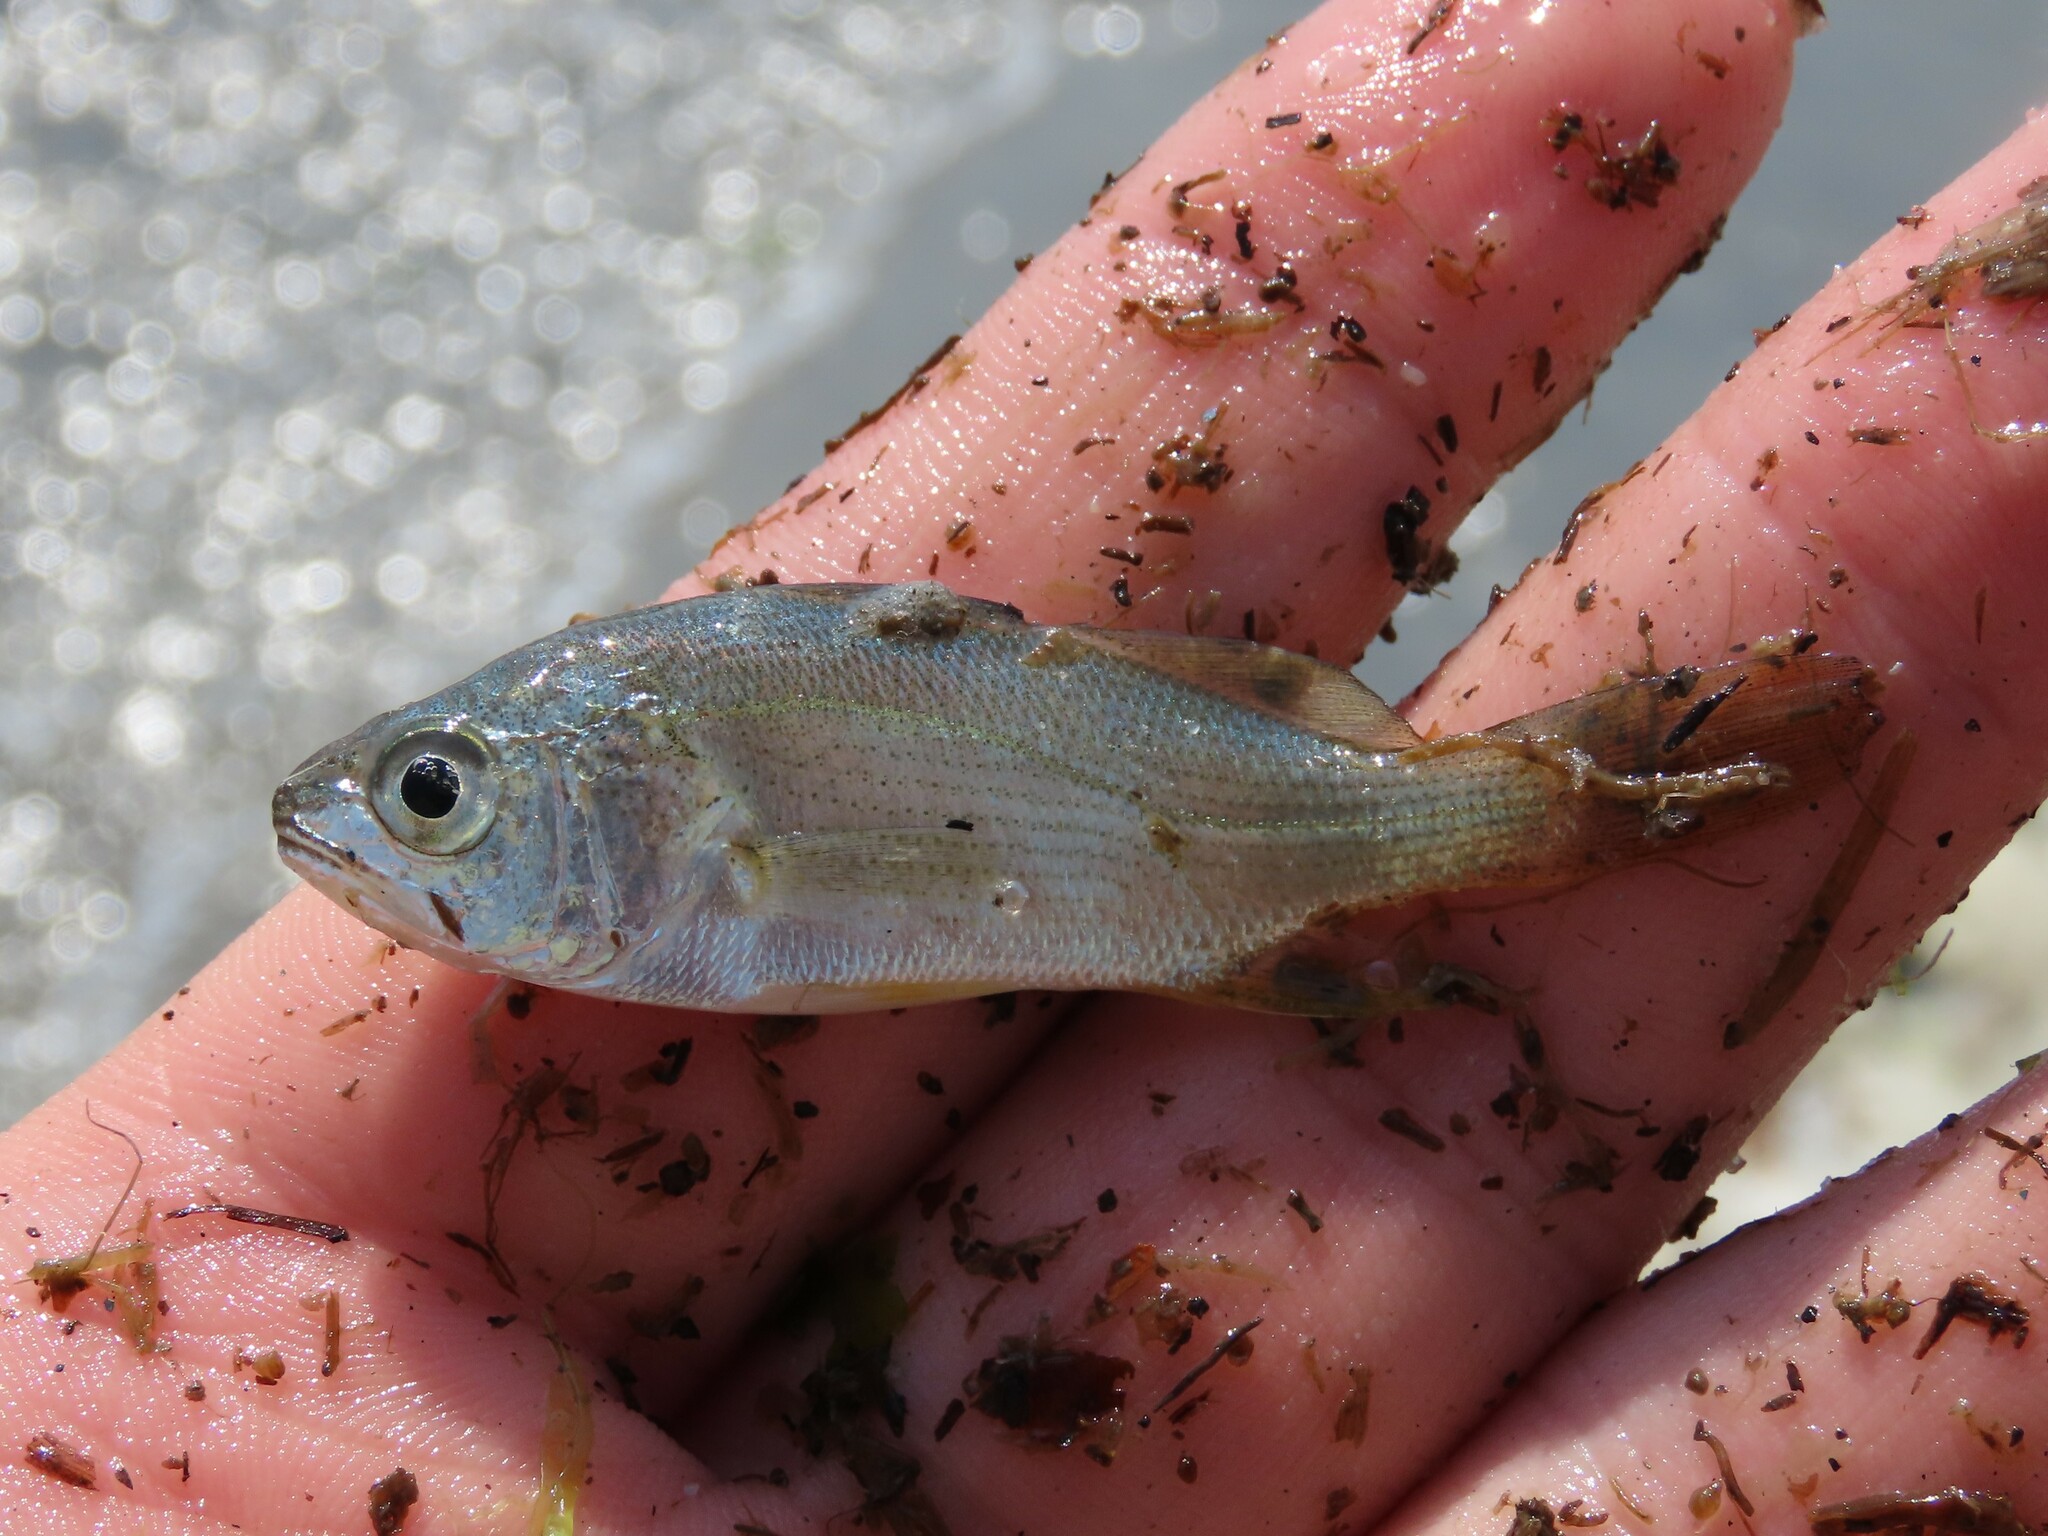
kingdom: Animalia
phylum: Chordata
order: Perciformes
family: Sciaenidae
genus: Bairdiella
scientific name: Bairdiella chrysoura
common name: Silver perch
